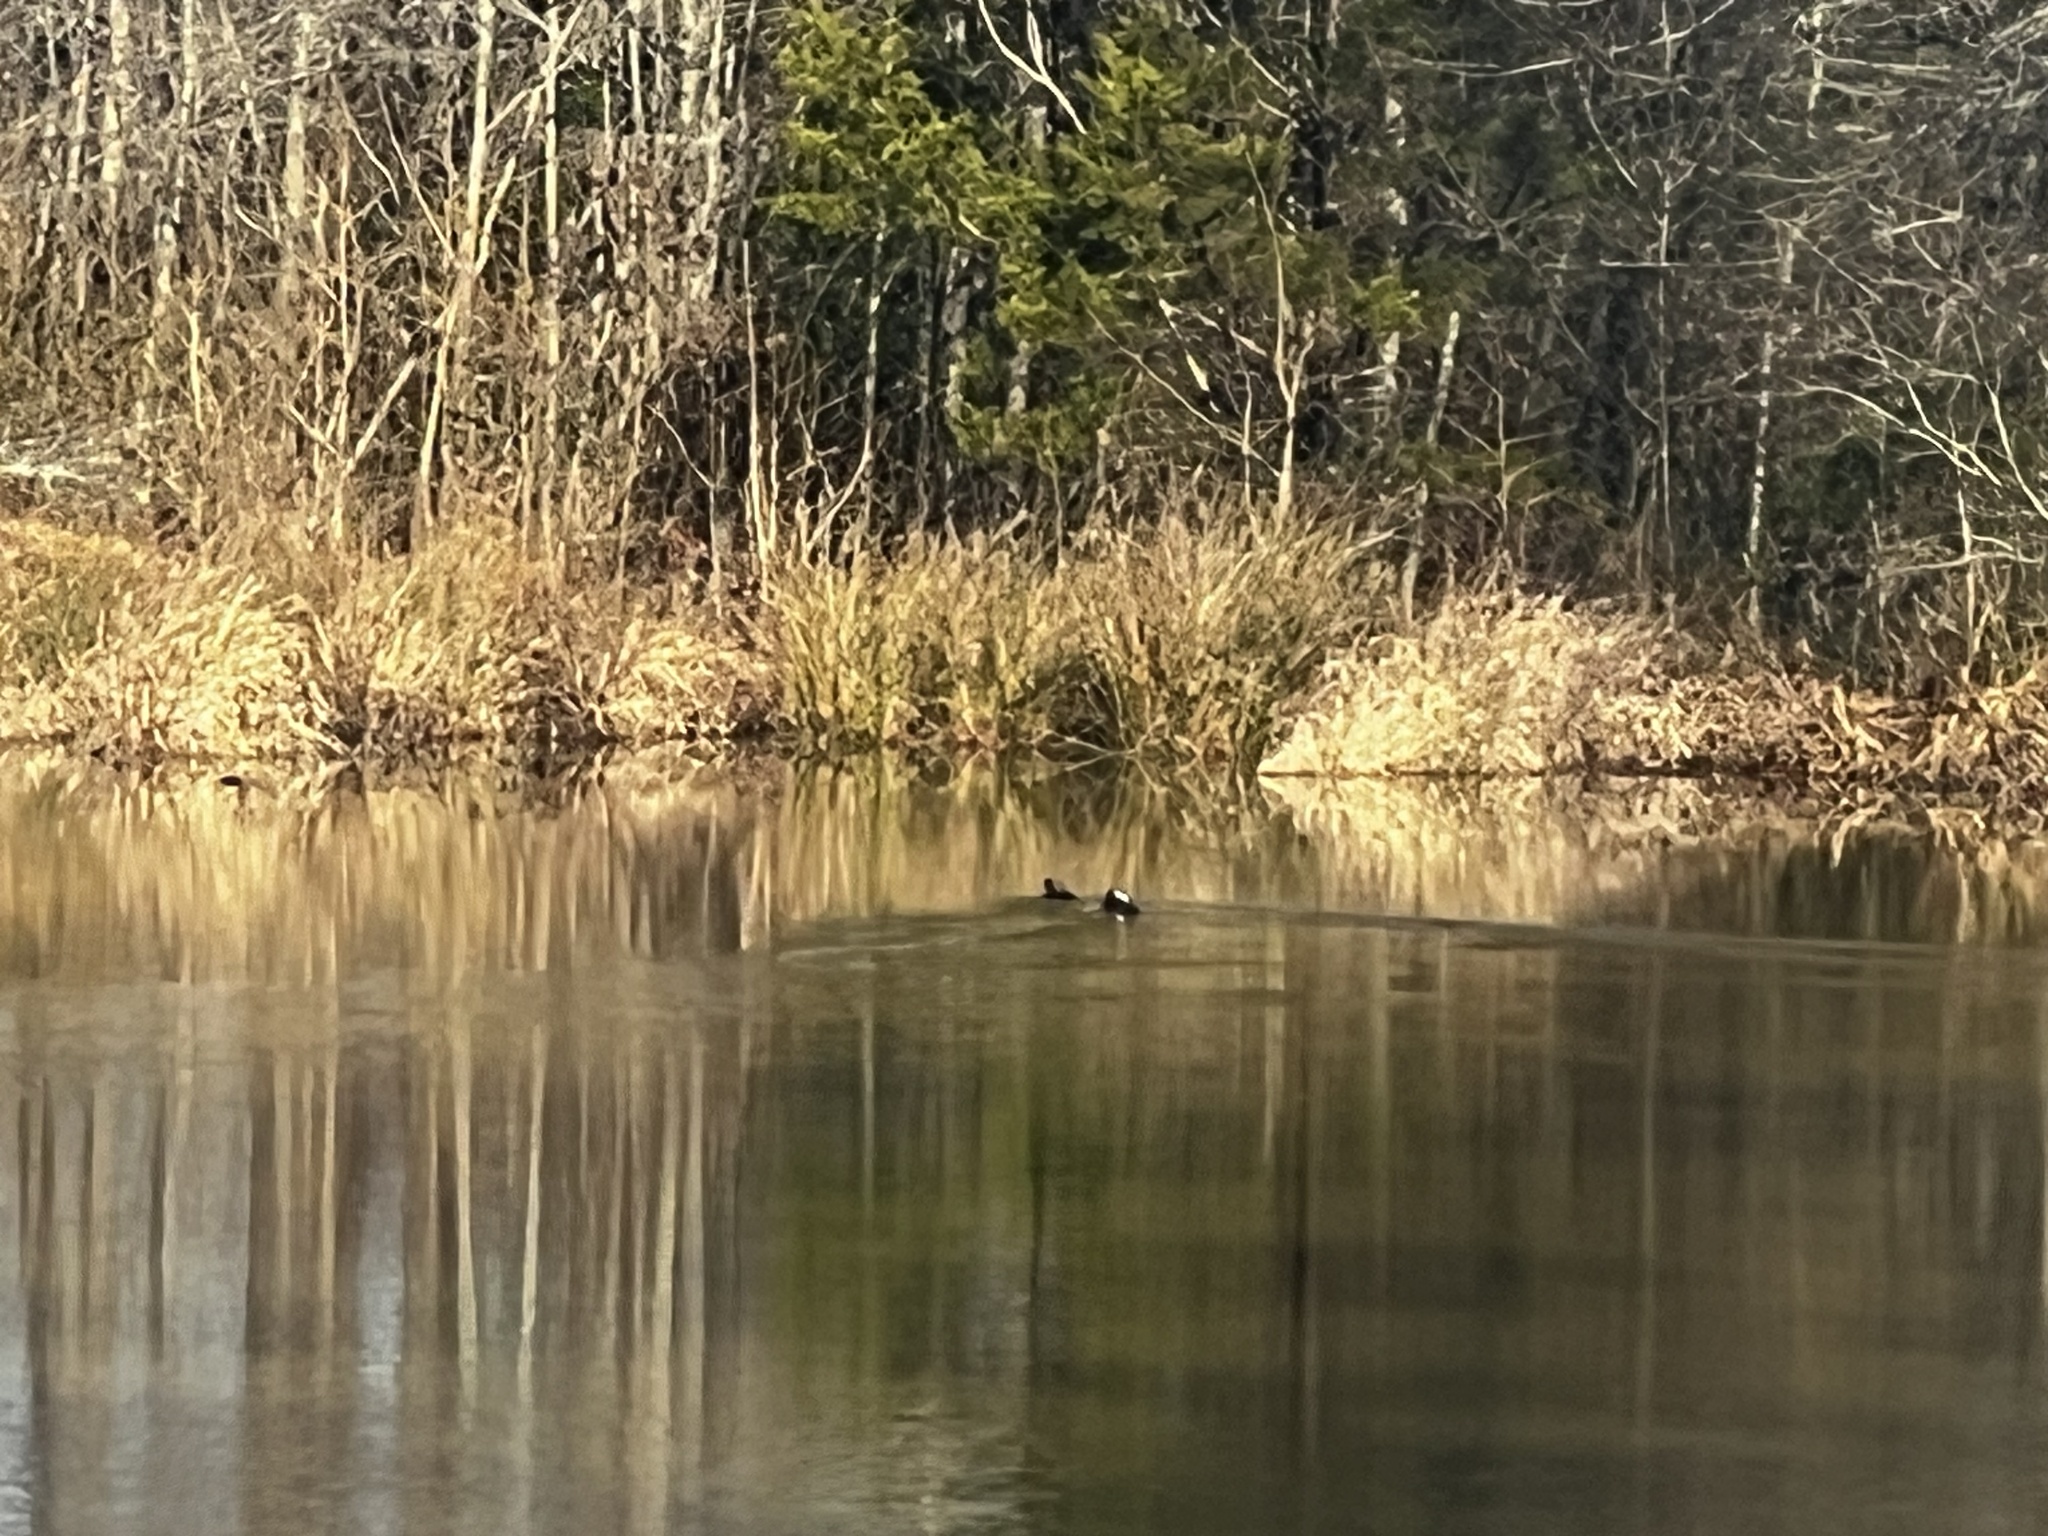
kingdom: Animalia
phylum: Chordata
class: Aves
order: Anseriformes
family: Anatidae
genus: Lophodytes
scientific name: Lophodytes cucullatus
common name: Hooded merganser
